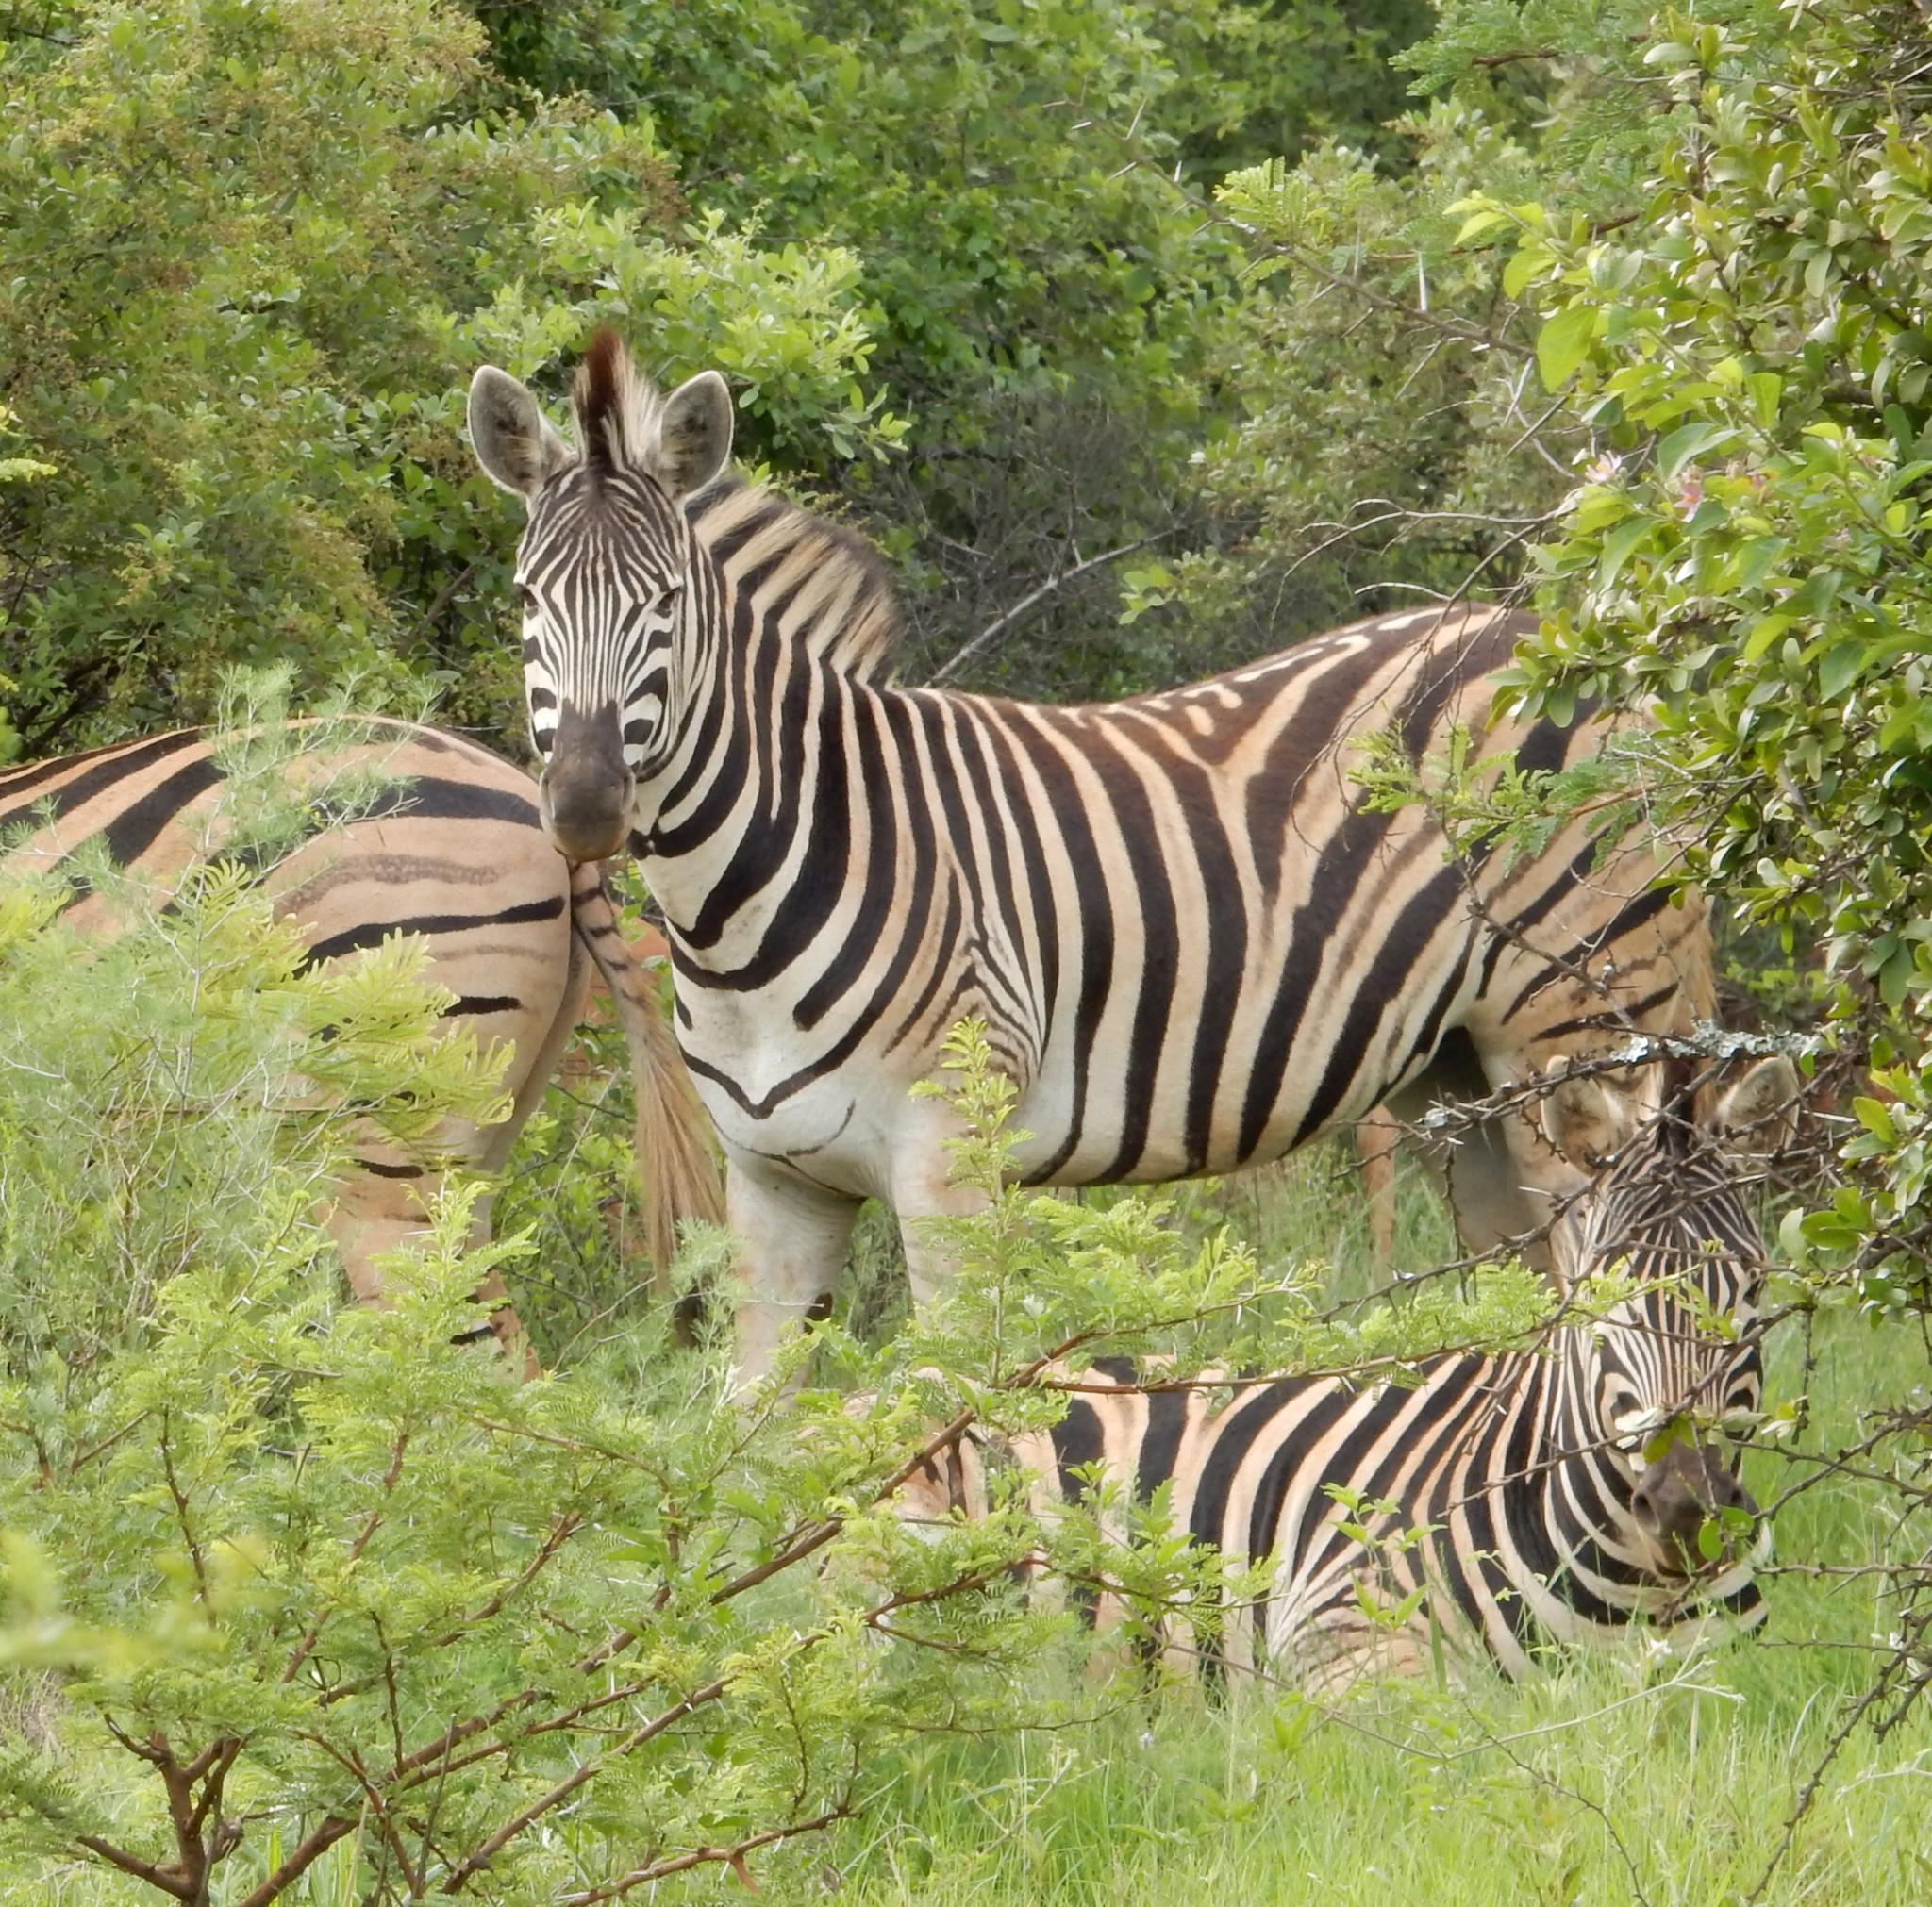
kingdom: Animalia
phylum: Chordata
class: Mammalia
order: Perissodactyla
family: Equidae
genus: Equus
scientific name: Equus quagga
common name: Plains zebra
